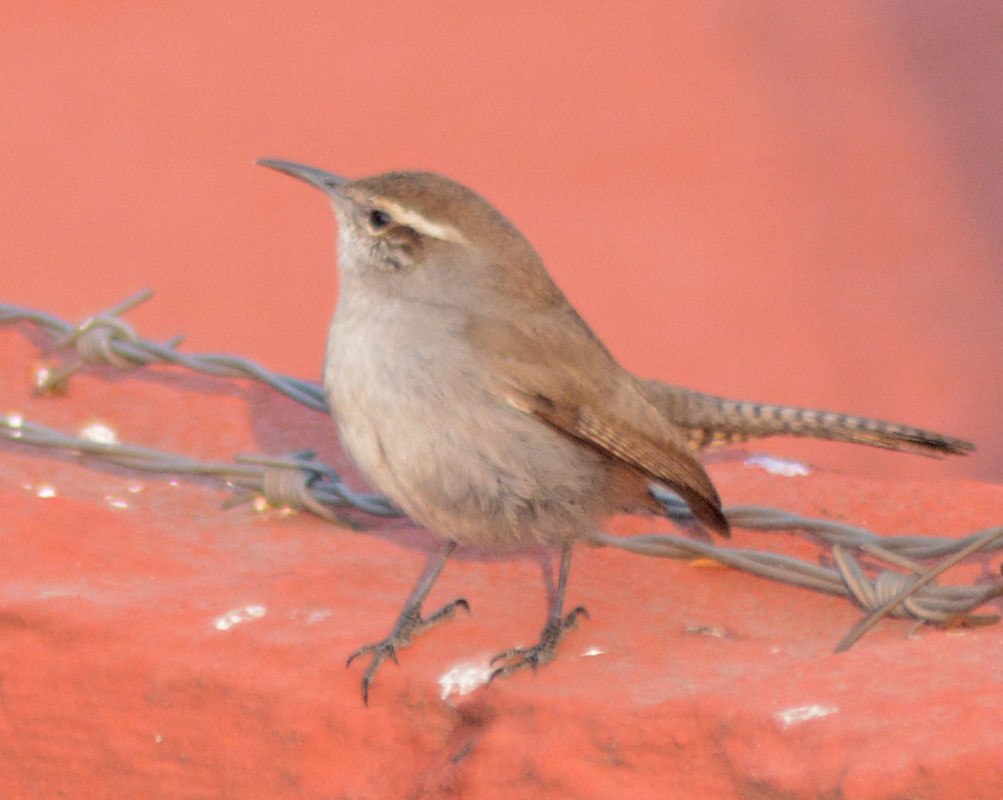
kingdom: Animalia
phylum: Chordata
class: Aves
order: Passeriformes
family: Troglodytidae
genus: Thryomanes
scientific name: Thryomanes bewickii
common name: Bewick's wren
